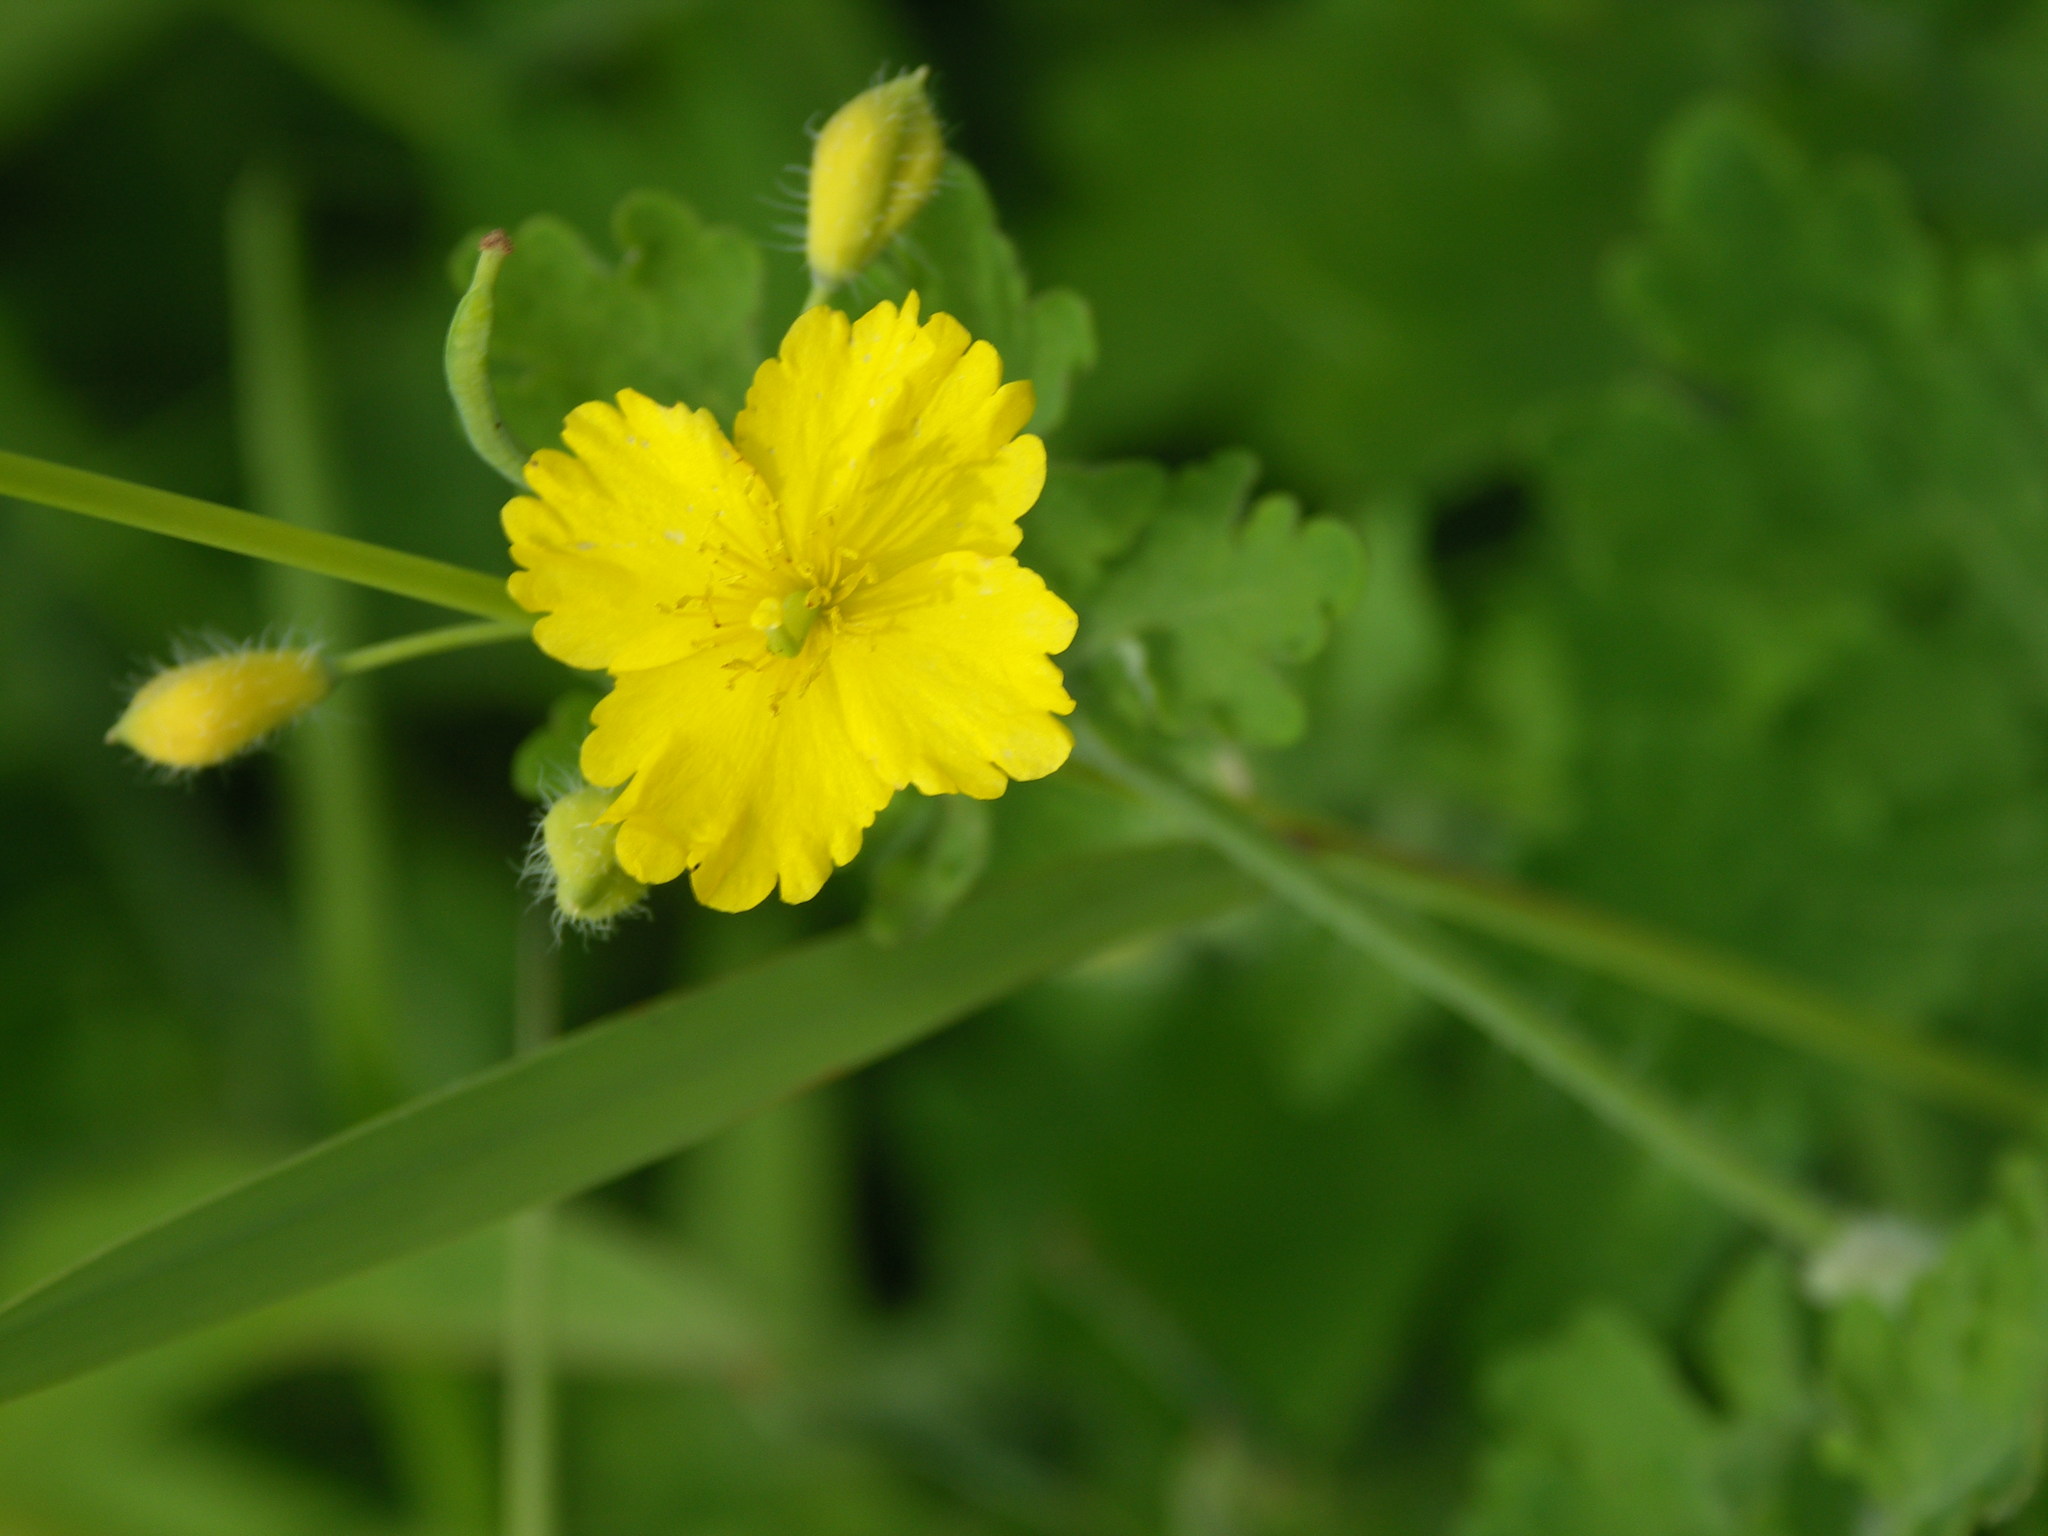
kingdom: Plantae
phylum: Tracheophyta
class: Magnoliopsida
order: Ranunculales
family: Papaveraceae
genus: Chelidonium
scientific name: Chelidonium majus
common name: Greater celandine
